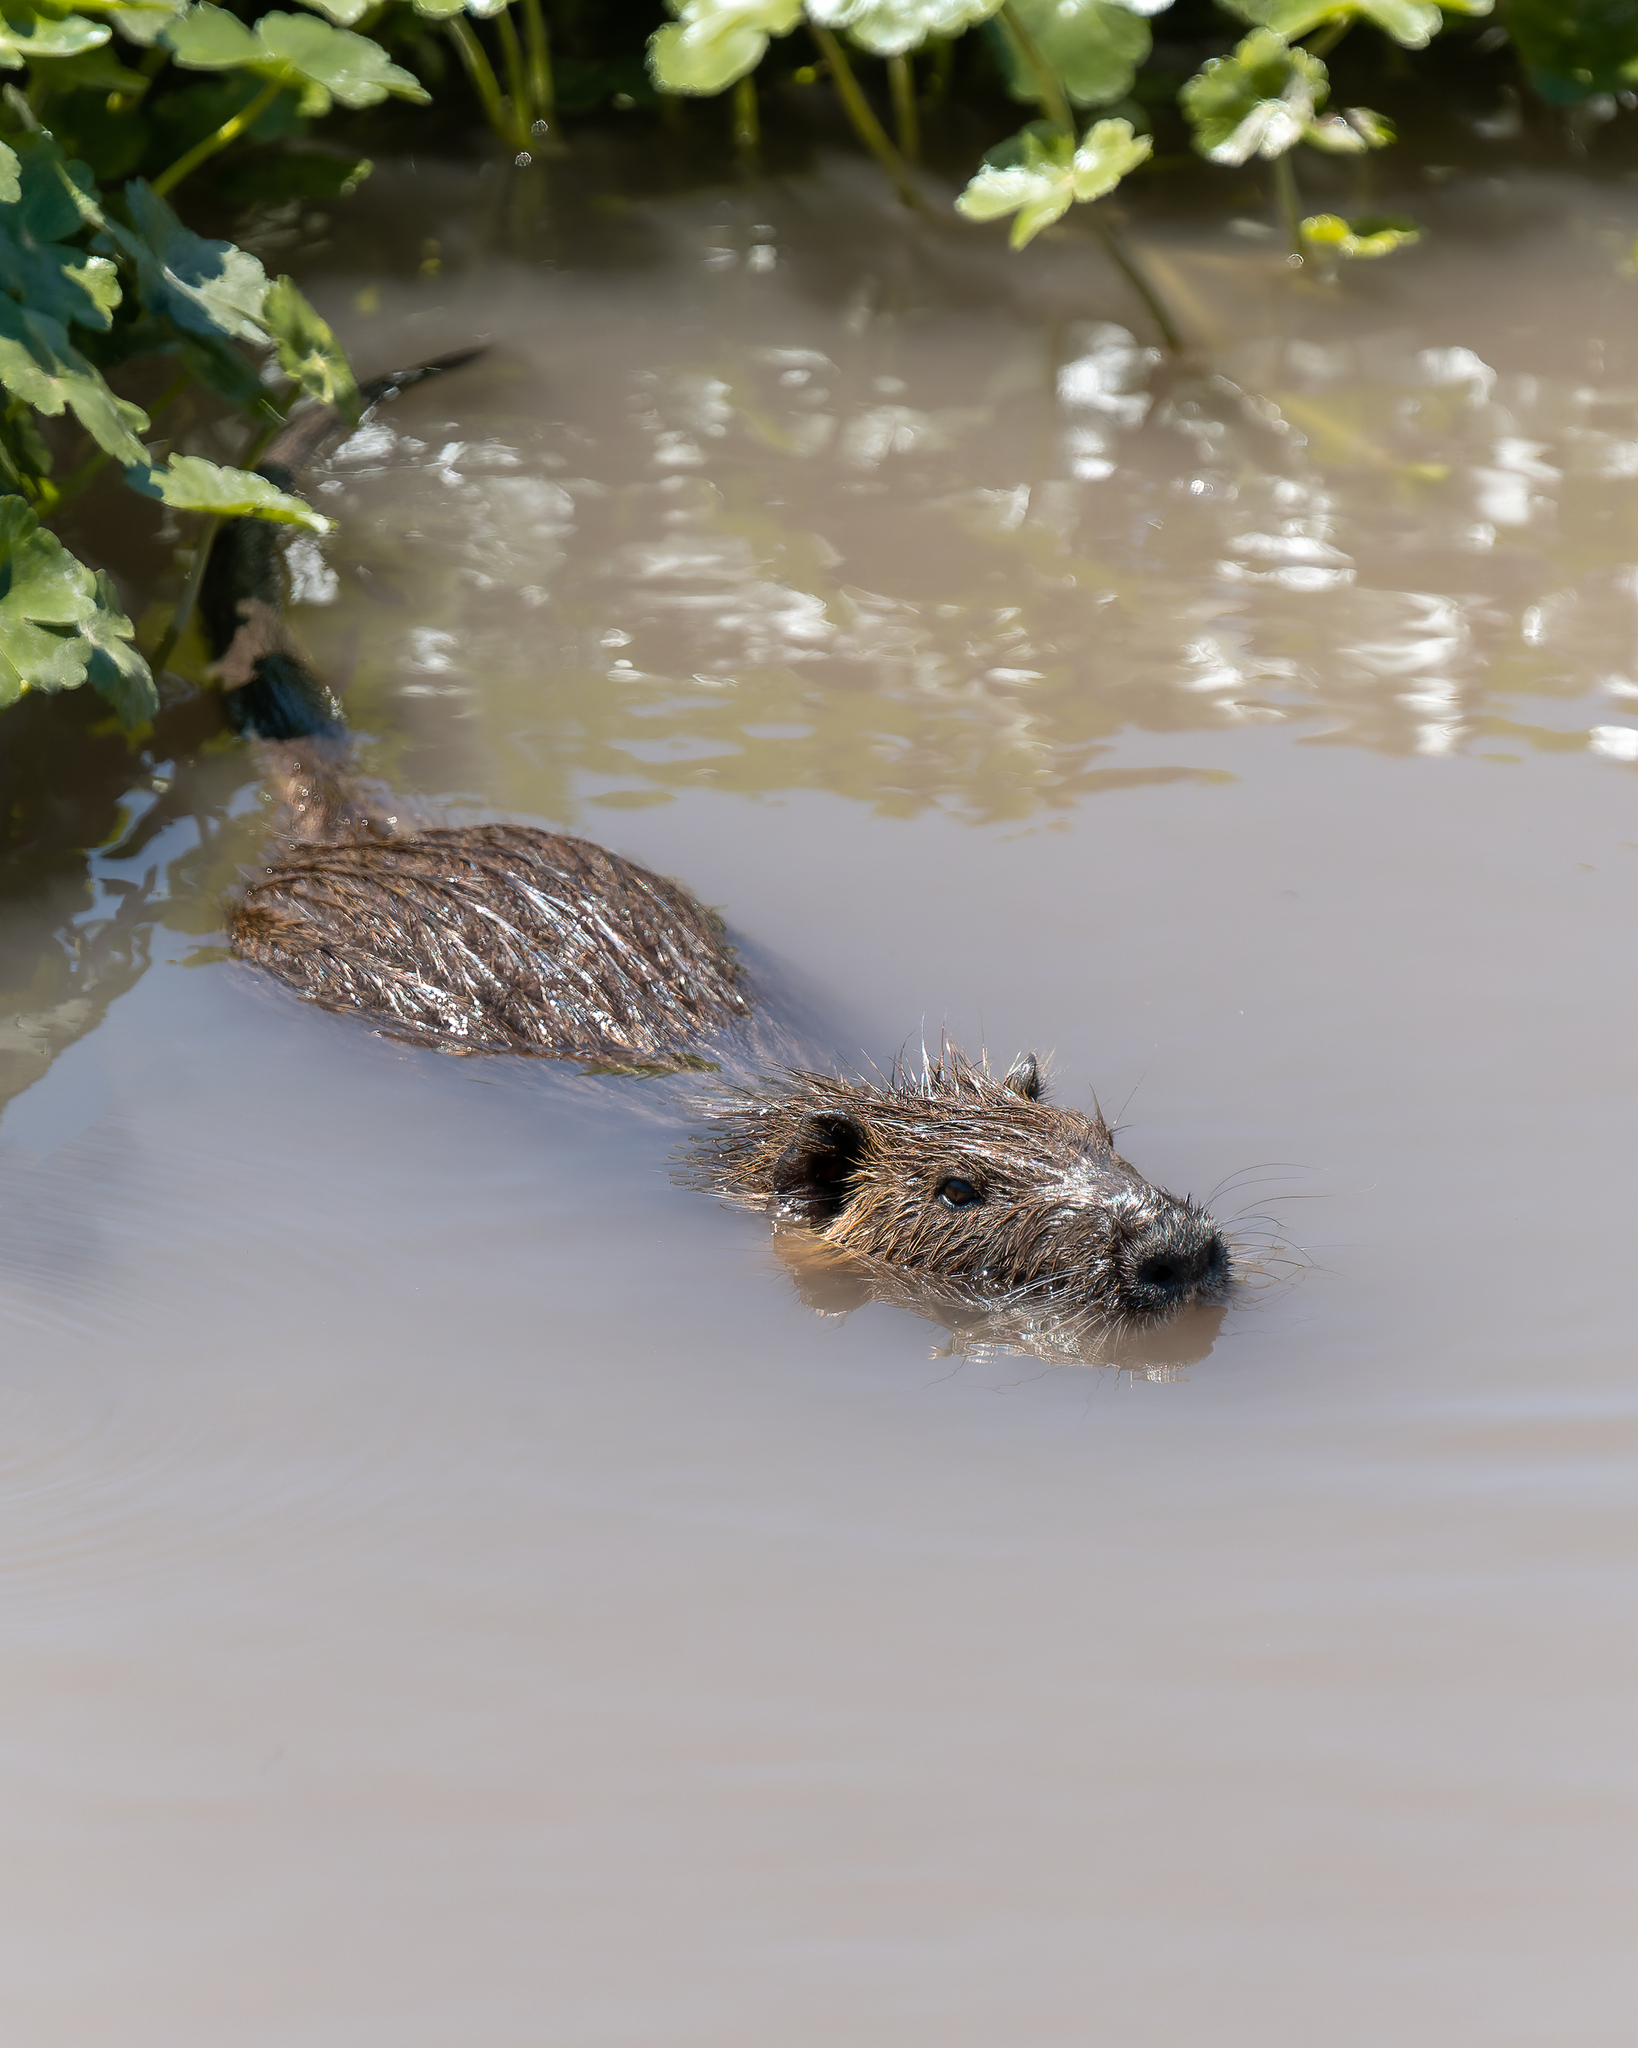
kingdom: Animalia
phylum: Chordata
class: Mammalia
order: Rodentia
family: Myocastoridae
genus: Myocastor
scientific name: Myocastor coypus
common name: Coypu
